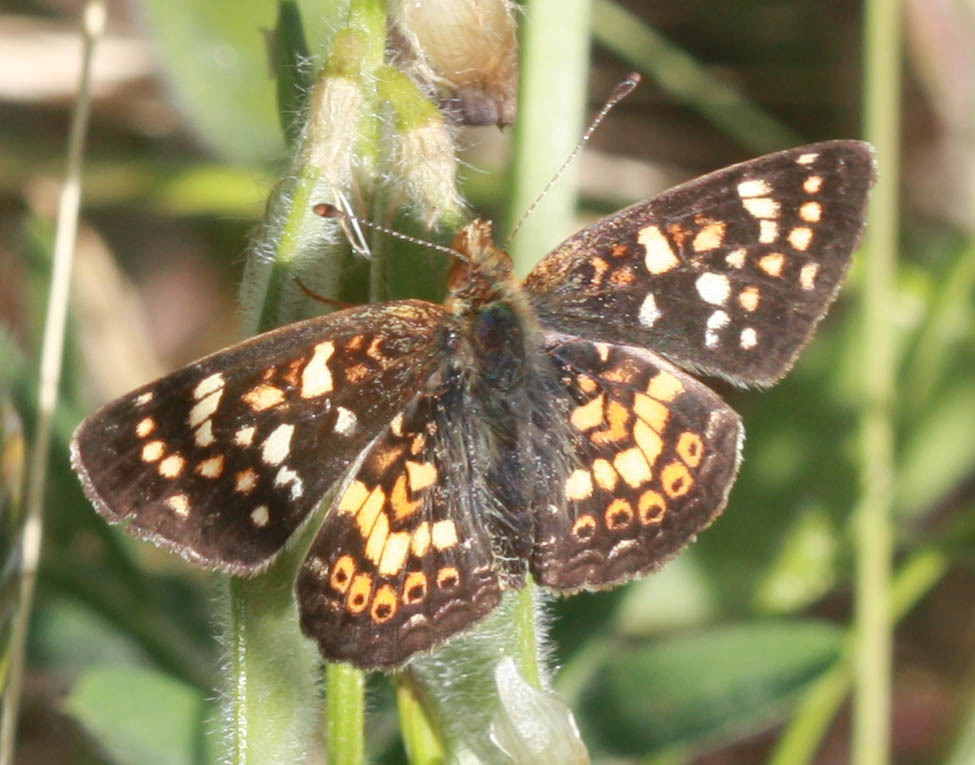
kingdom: Animalia
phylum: Arthropoda
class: Insecta
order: Lepidoptera
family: Nymphalidae
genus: Phyciodes
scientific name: Phyciodes tharos
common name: Pearl crescent
